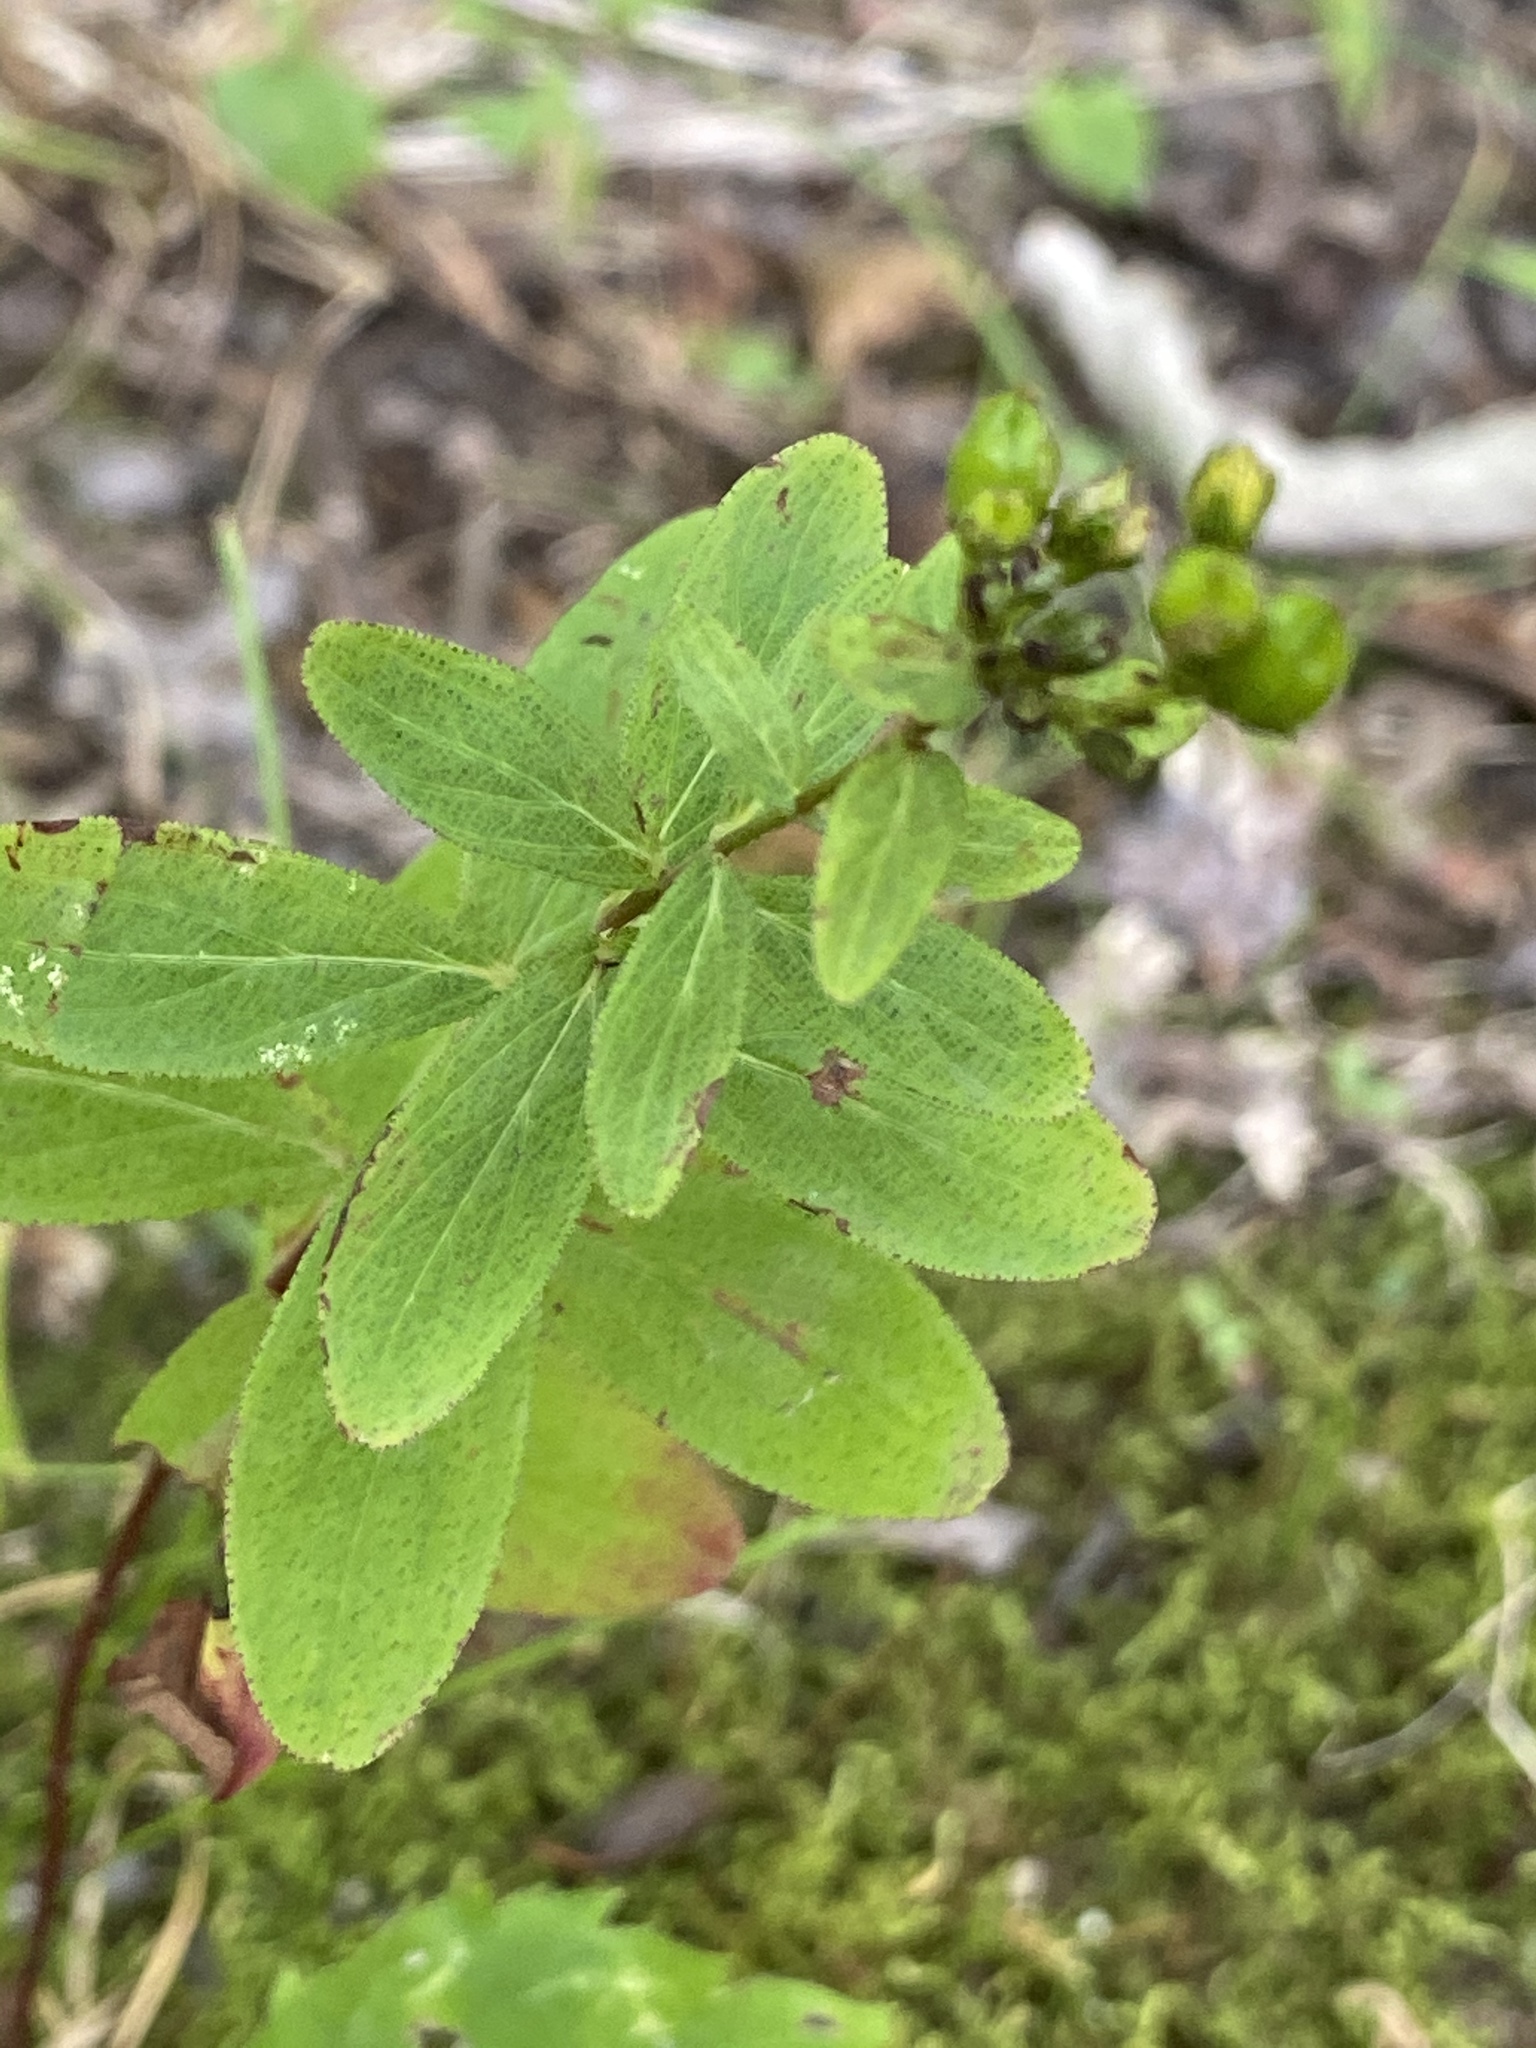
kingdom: Plantae
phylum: Tracheophyta
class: Magnoliopsida
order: Malpighiales
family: Hypericaceae
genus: Hypericum
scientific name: Hypericum punctatum
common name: Spotted st. john's-wort
